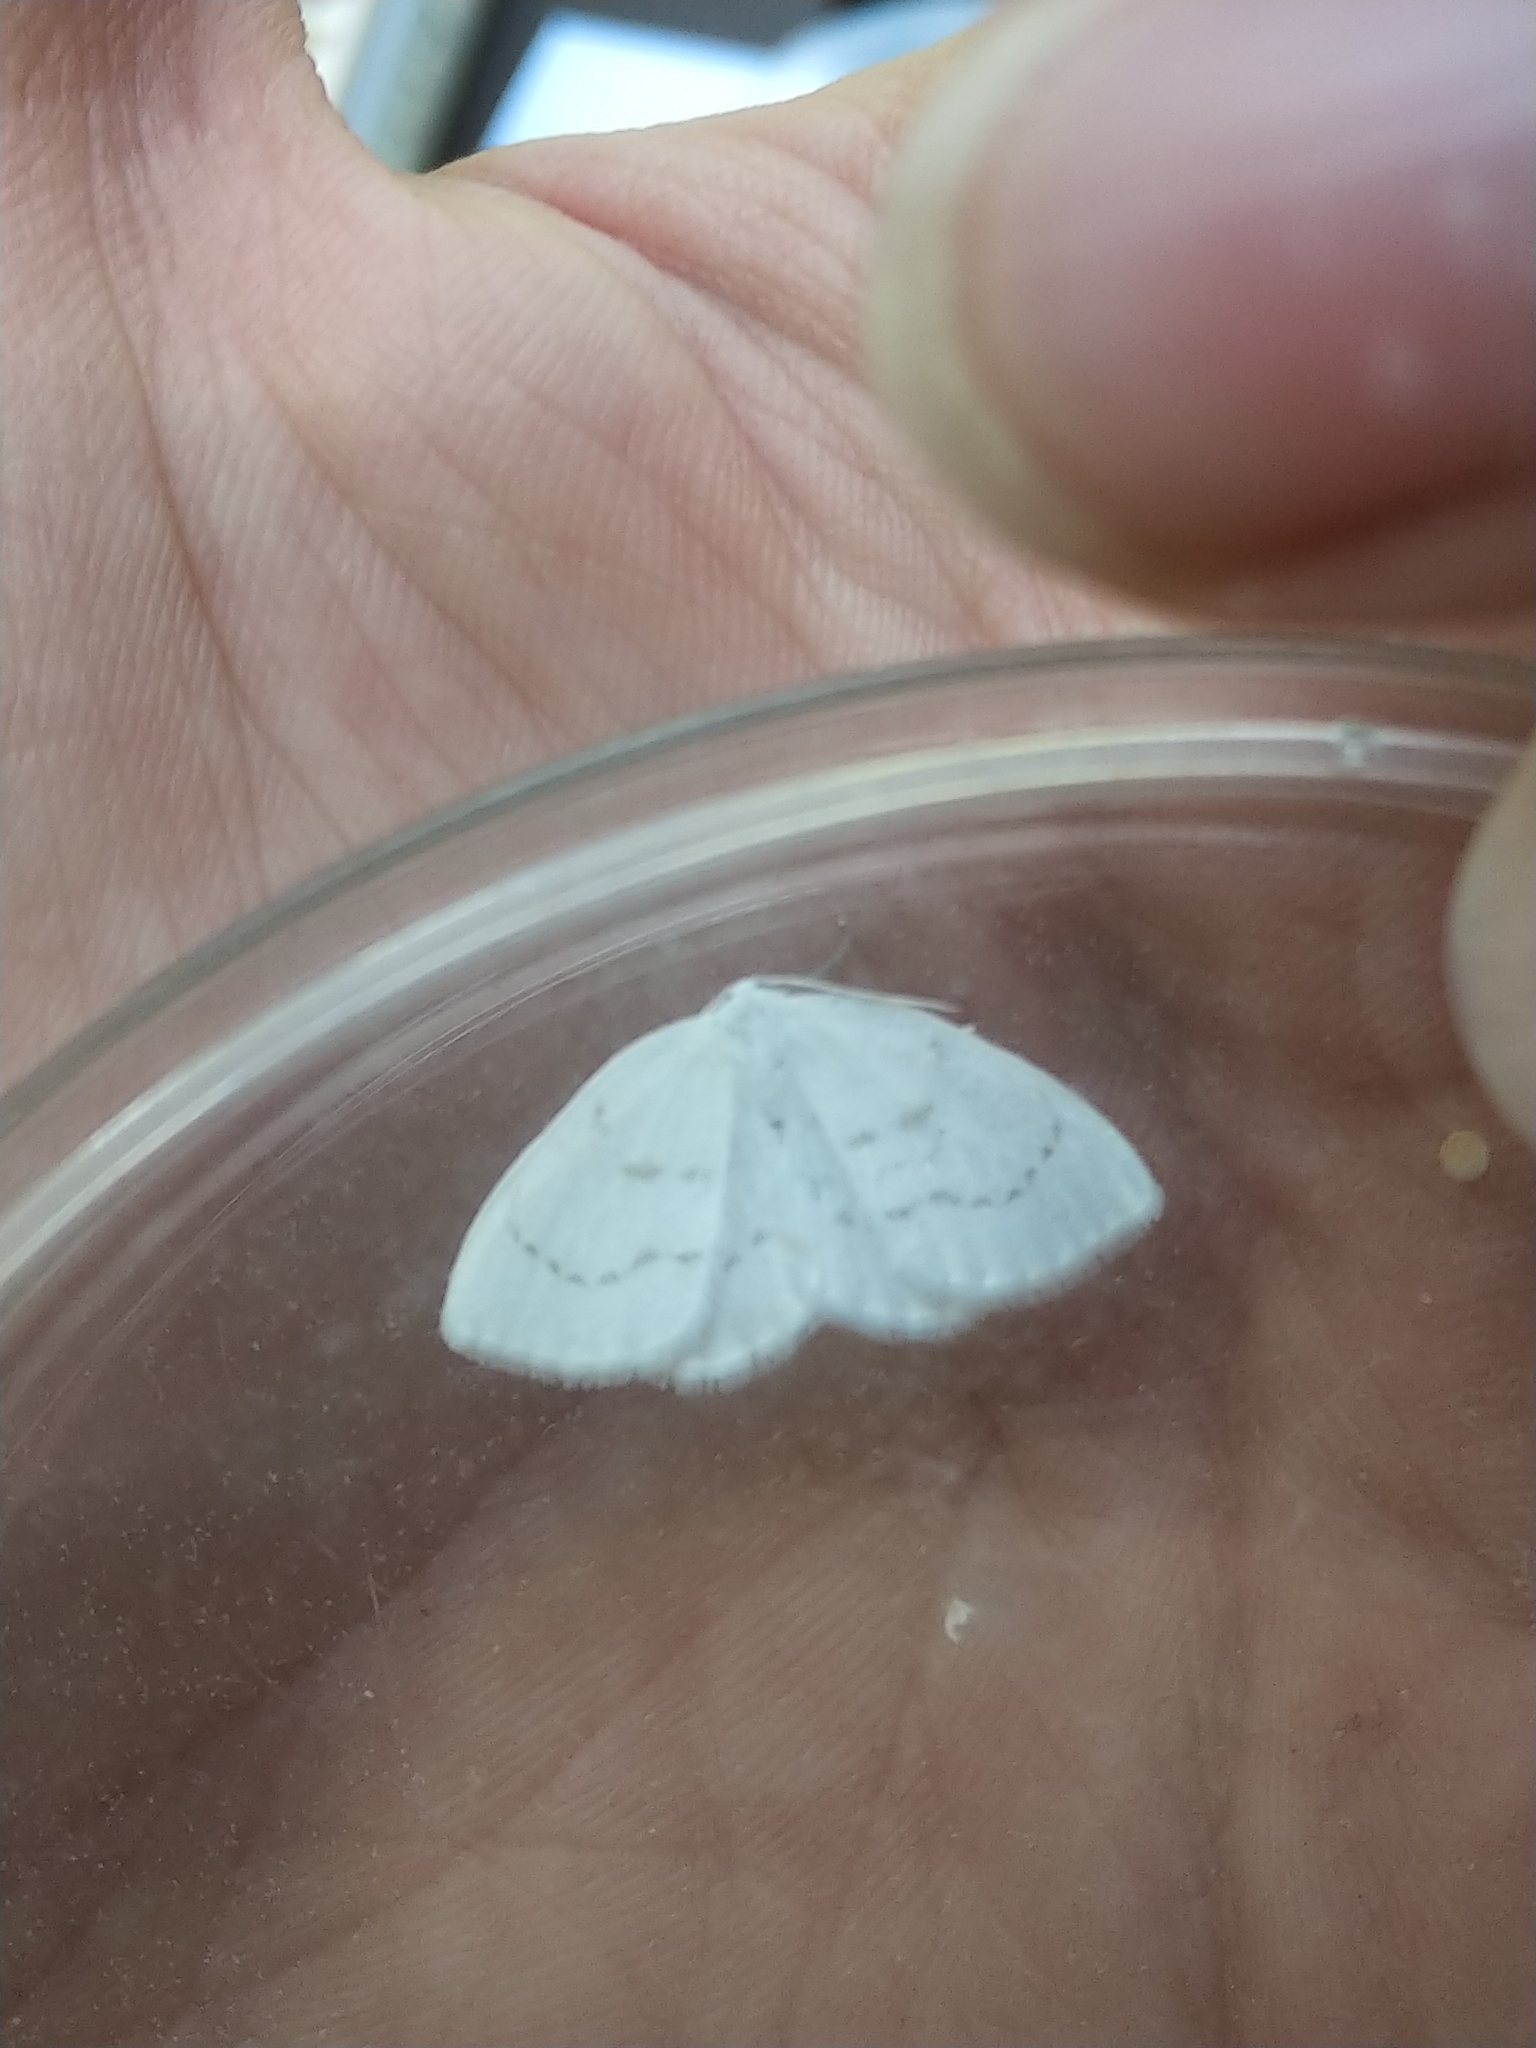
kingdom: Animalia
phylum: Arthropoda
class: Insecta
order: Lepidoptera
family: Drepanidae
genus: Eudeilinia
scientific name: Eudeilinia herminiata
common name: Northern eudeilinea moth
